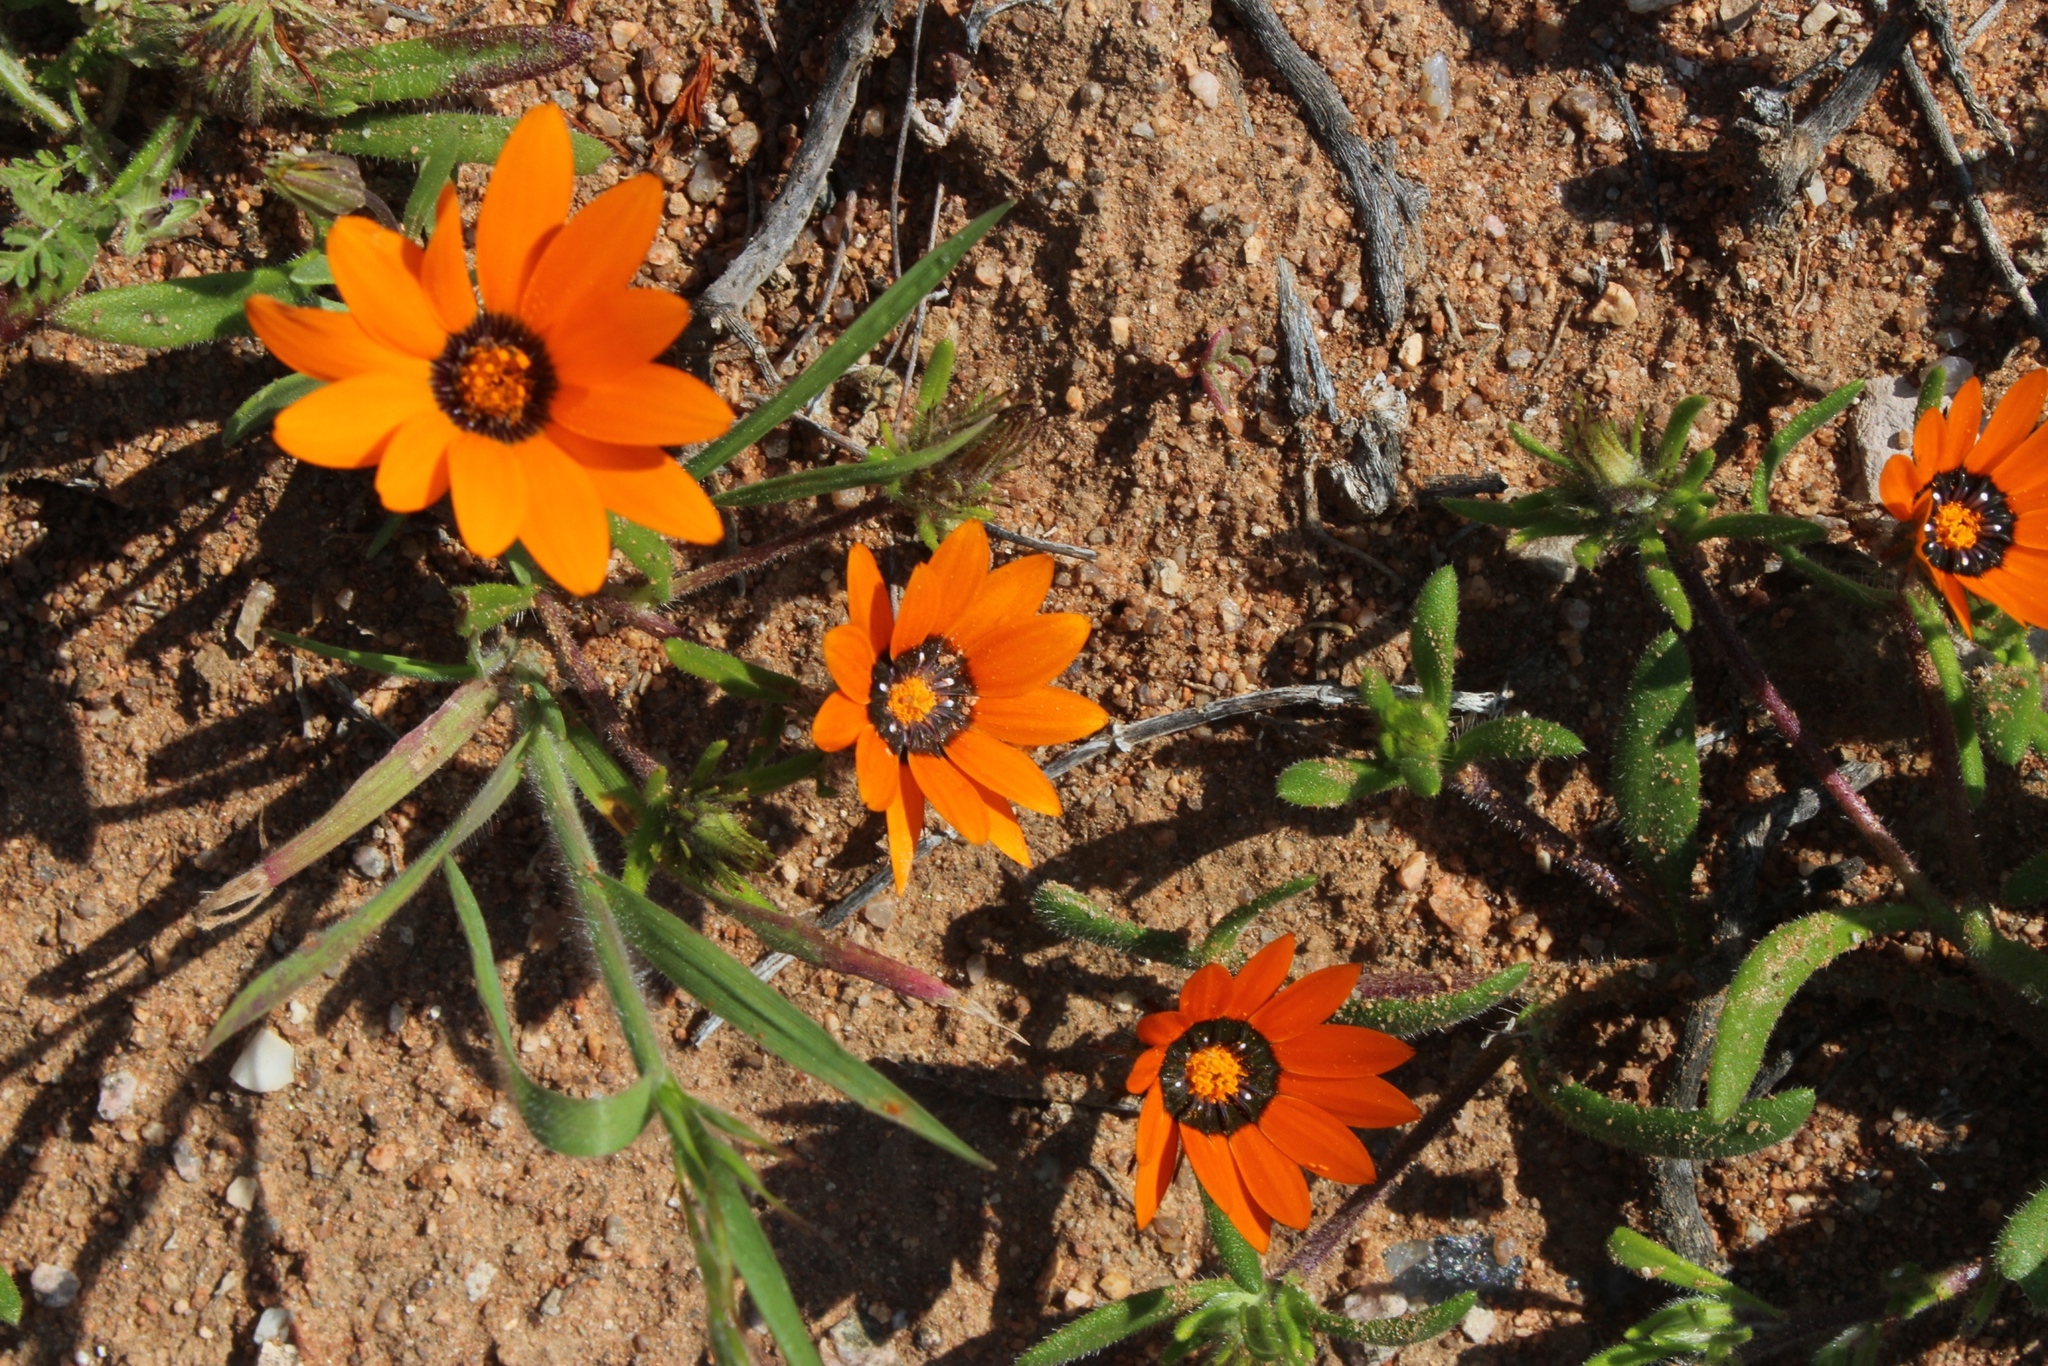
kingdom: Plantae
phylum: Tracheophyta
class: Magnoliopsida
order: Asterales
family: Asteraceae
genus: Gorteria
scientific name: Gorteria diffusa
